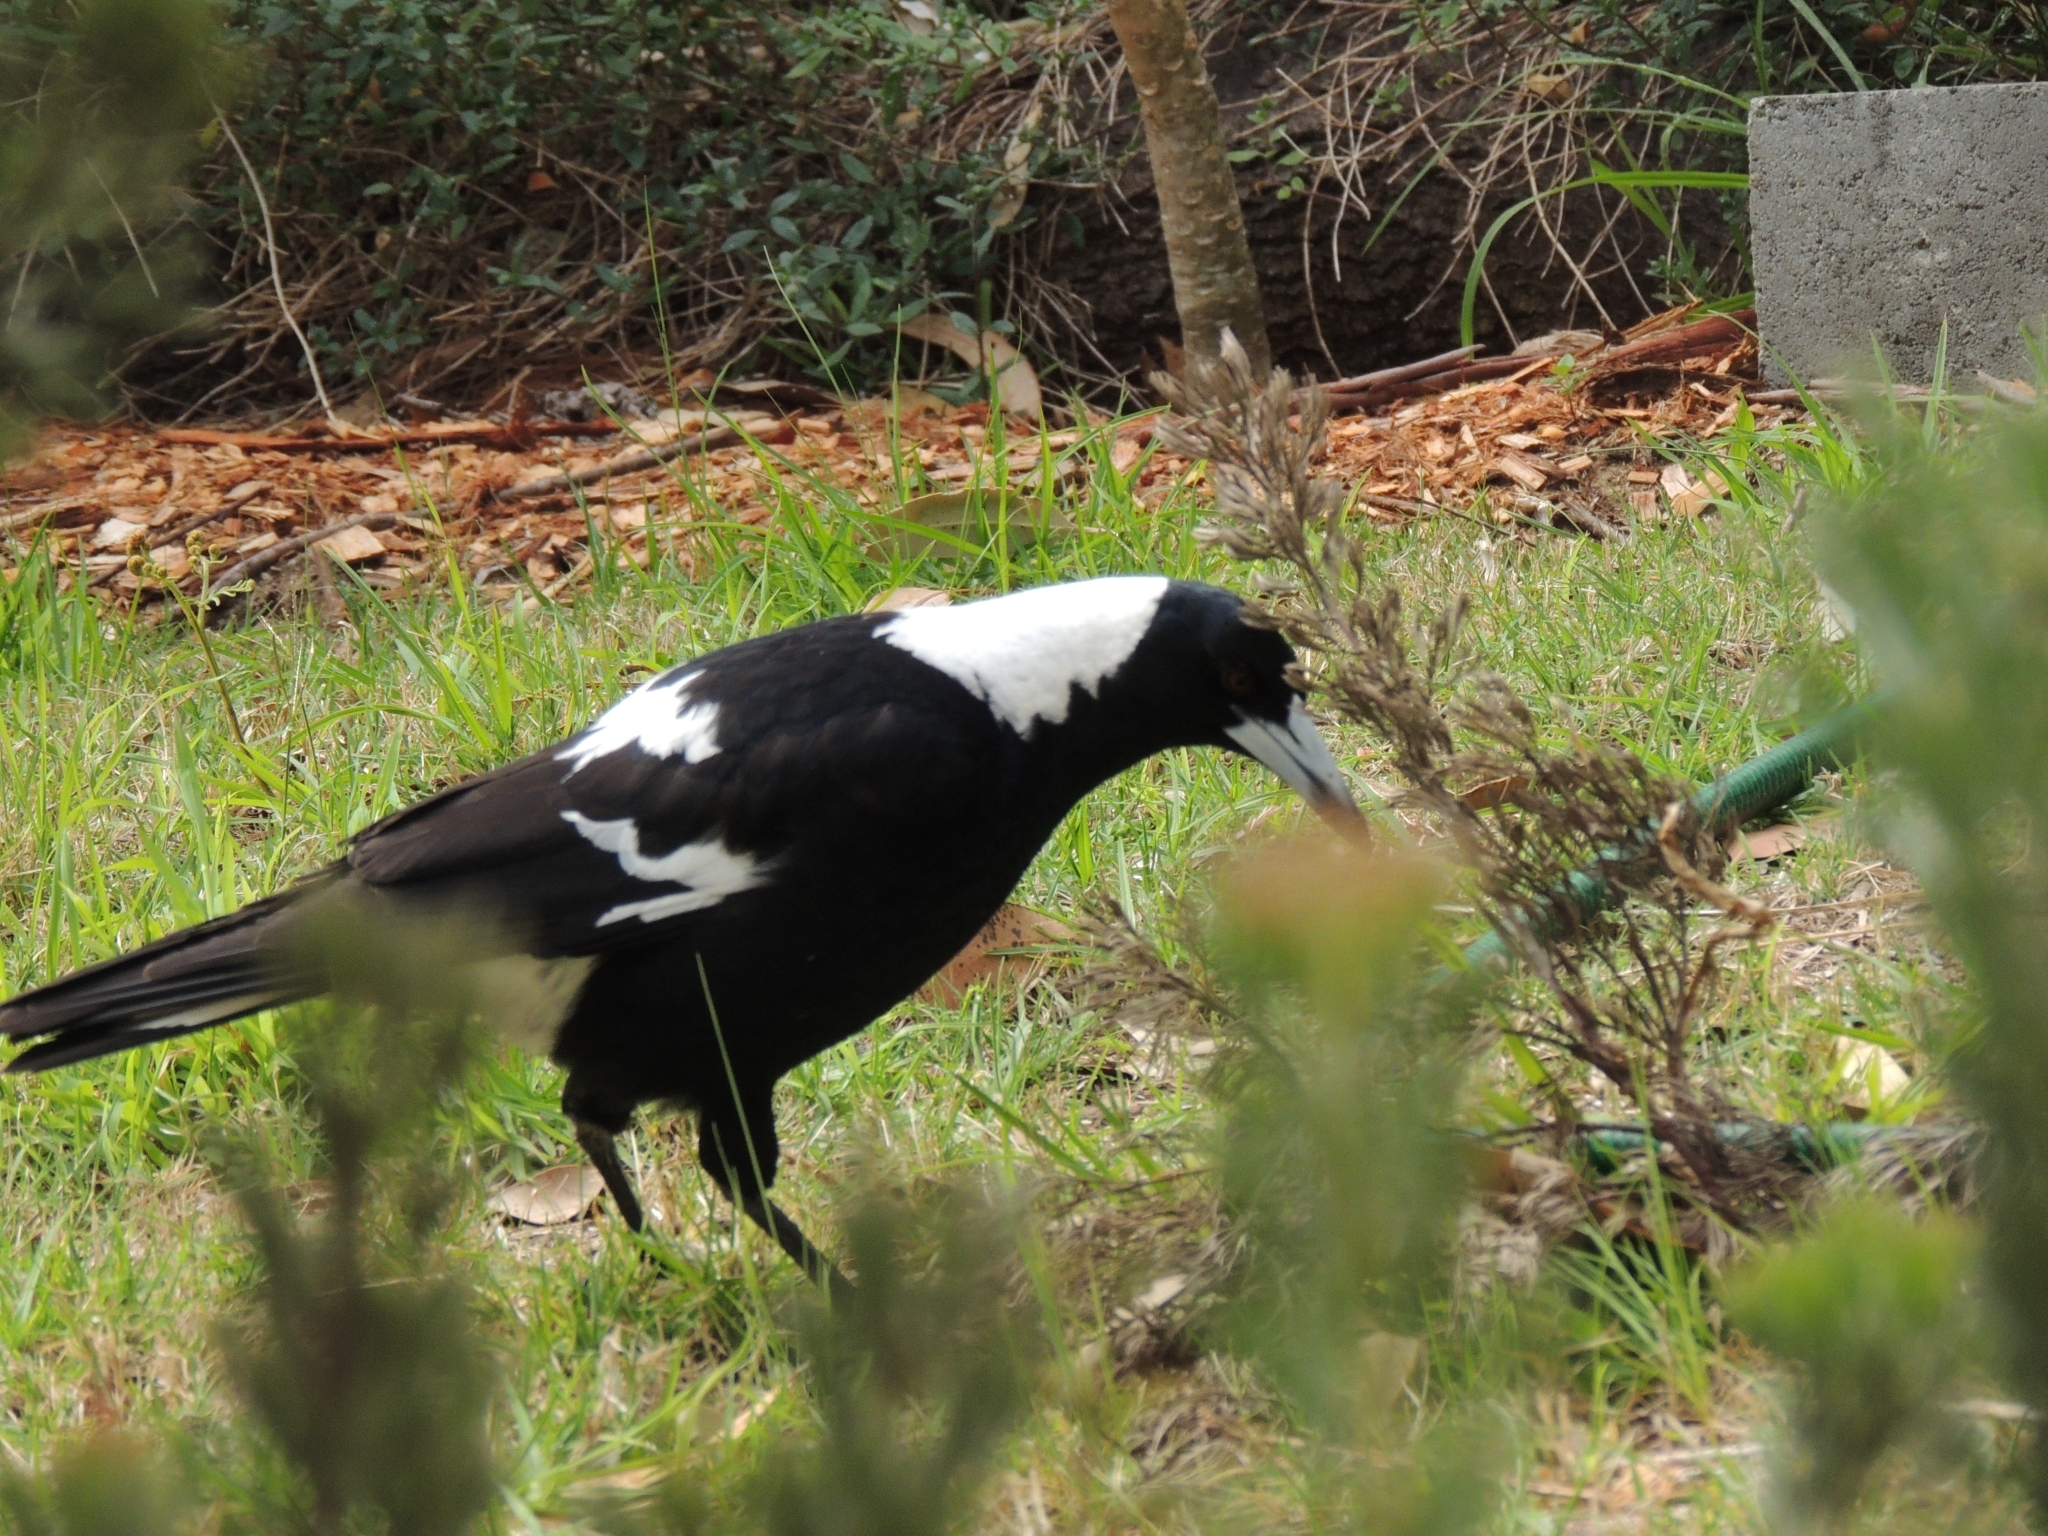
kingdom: Animalia
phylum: Chordata
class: Aves
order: Passeriformes
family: Cracticidae
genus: Gymnorhina
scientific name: Gymnorhina tibicen
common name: Australian magpie
